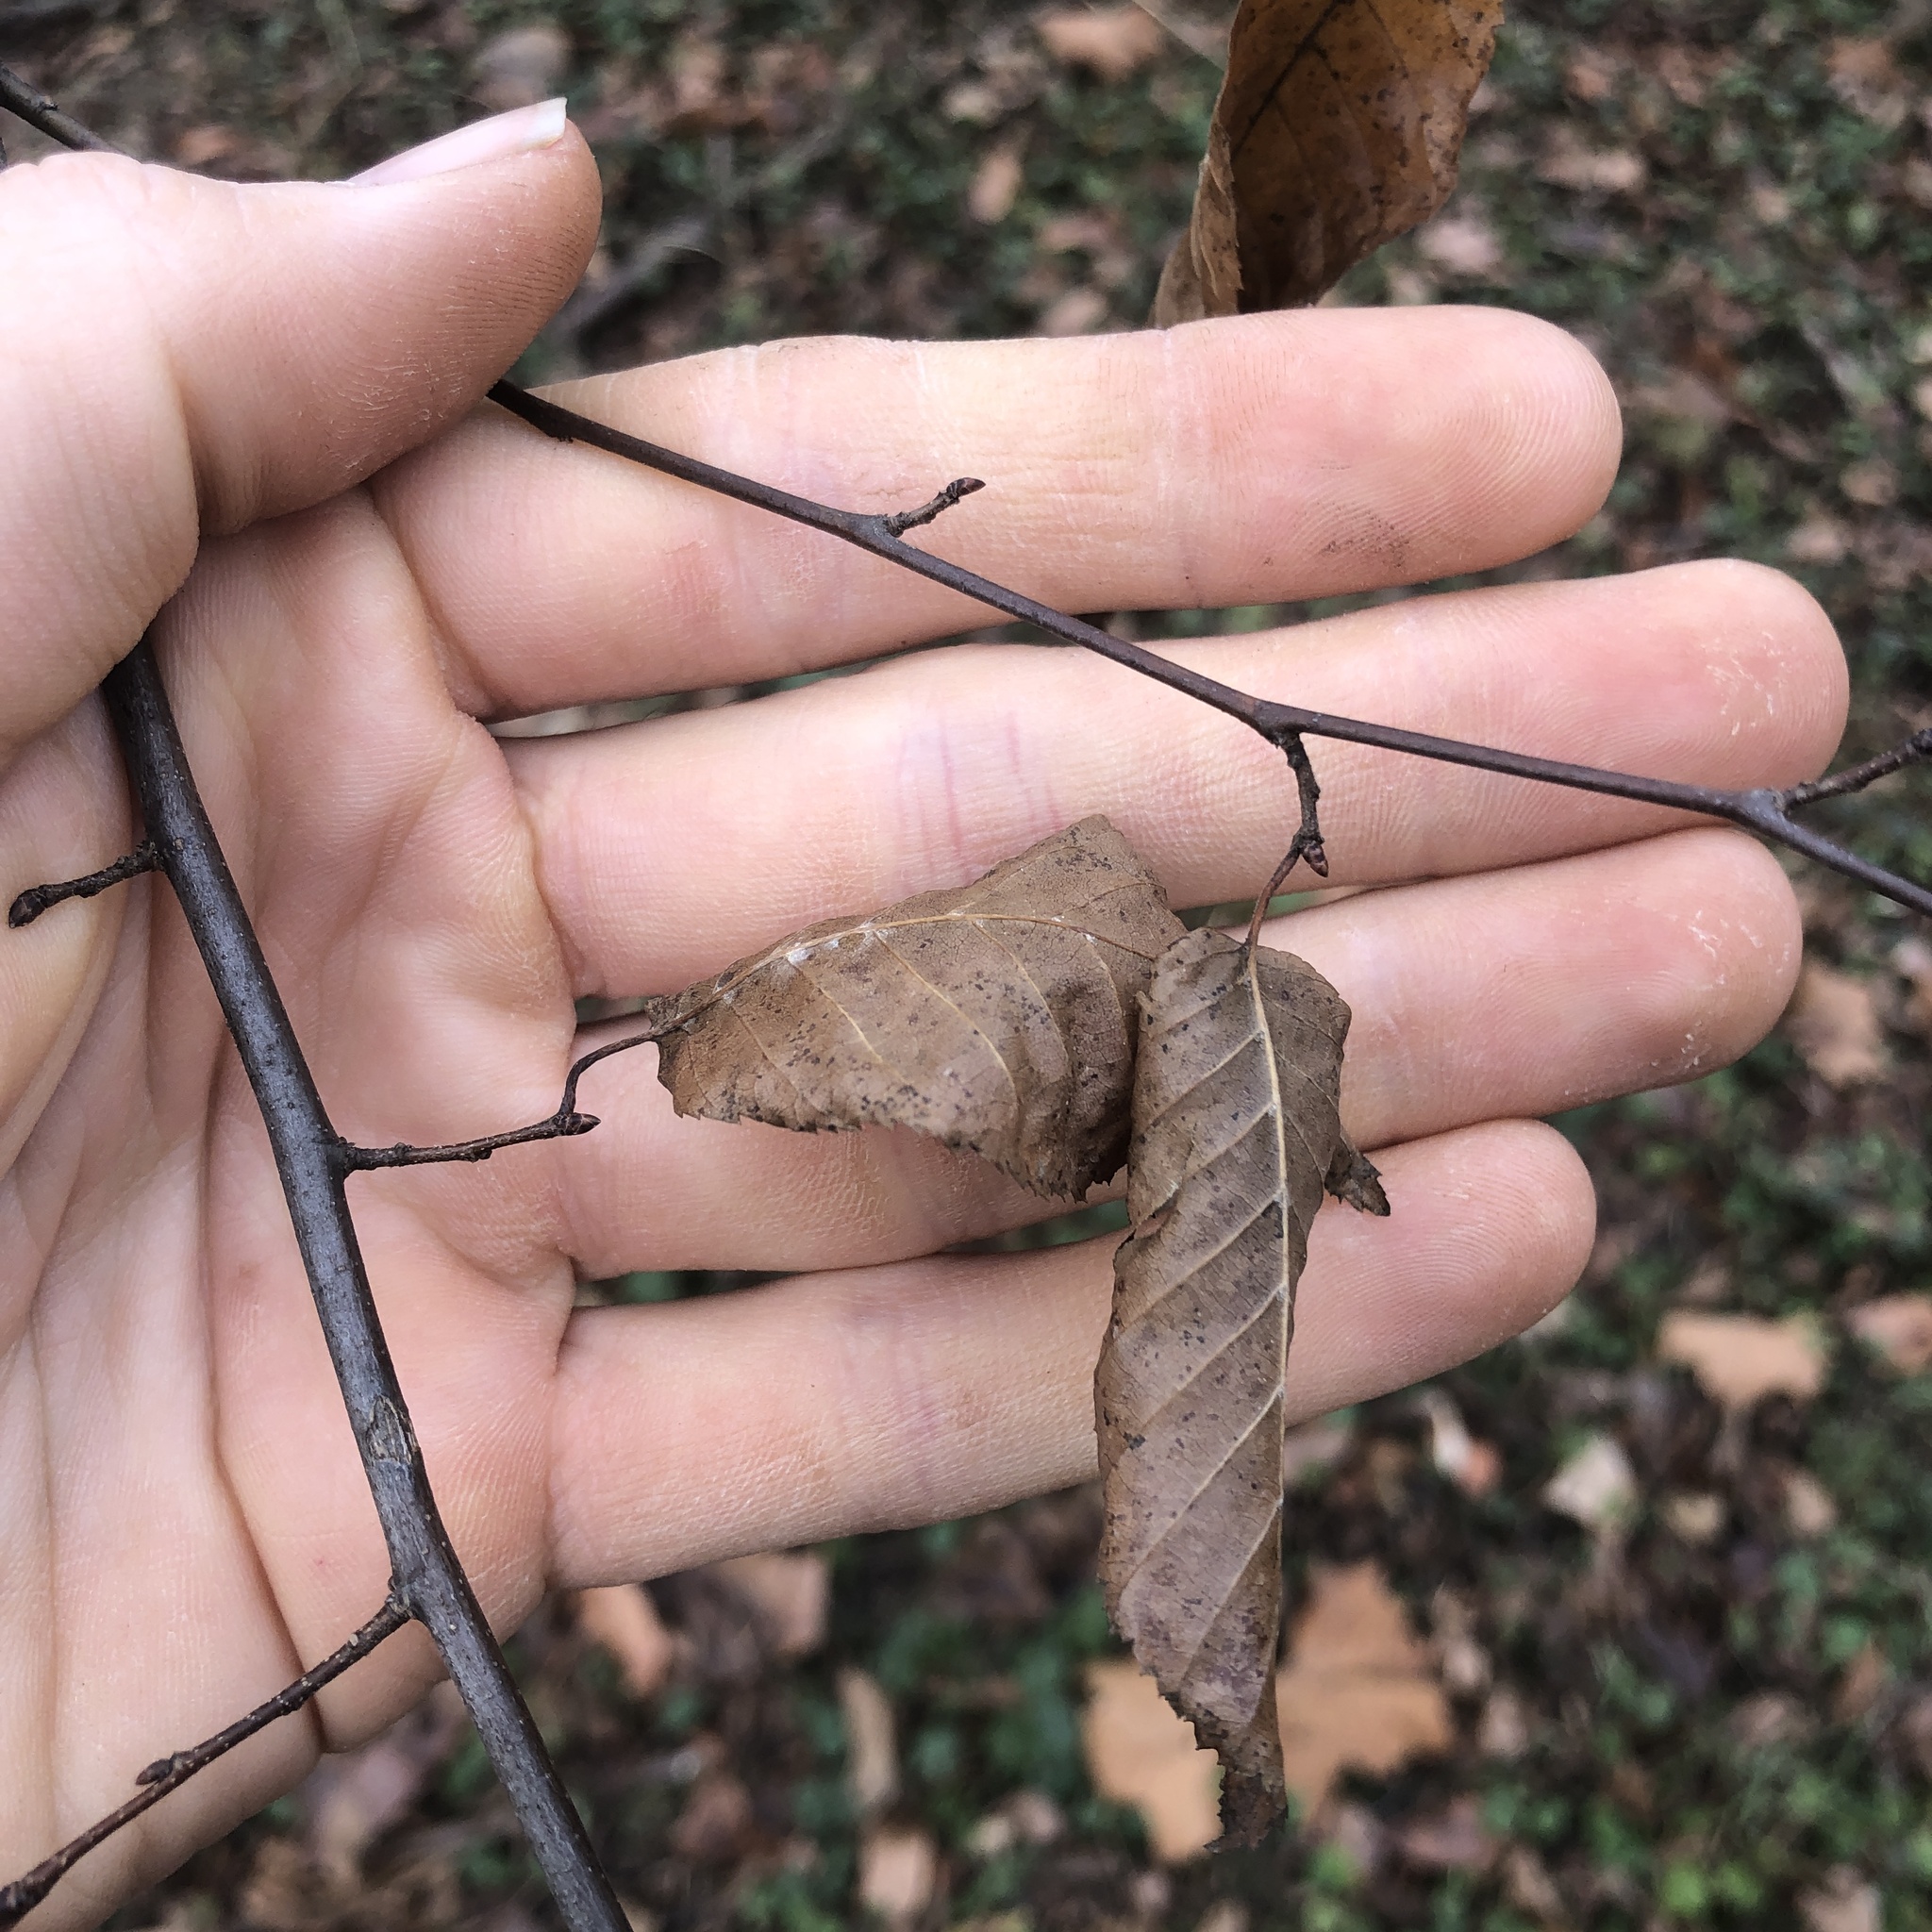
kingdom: Plantae
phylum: Tracheophyta
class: Magnoliopsida
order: Fagales
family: Betulaceae
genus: Carpinus
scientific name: Carpinus caroliniana
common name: American hornbeam
